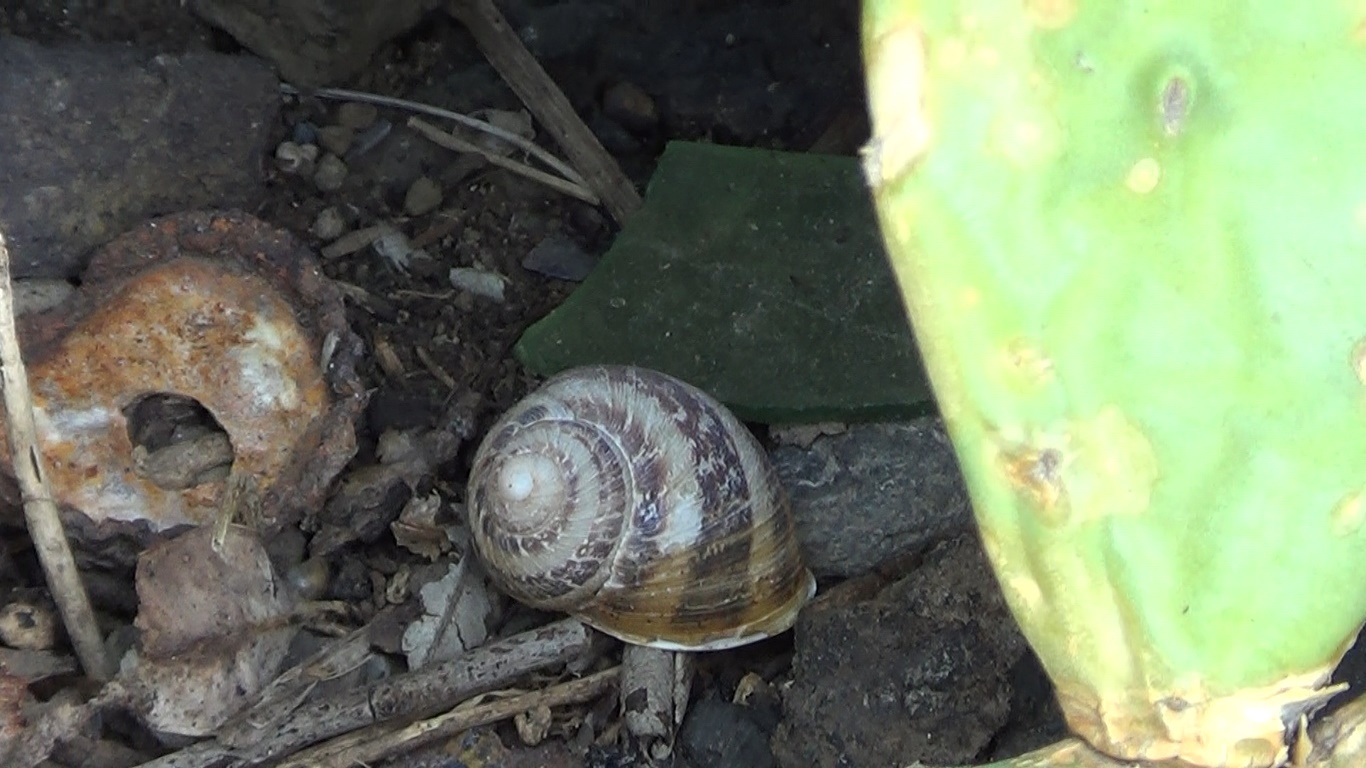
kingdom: Animalia
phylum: Mollusca
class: Gastropoda
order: Stylommatophora
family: Helicidae
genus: Cornu
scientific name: Cornu aspersum
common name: Brown garden snail
